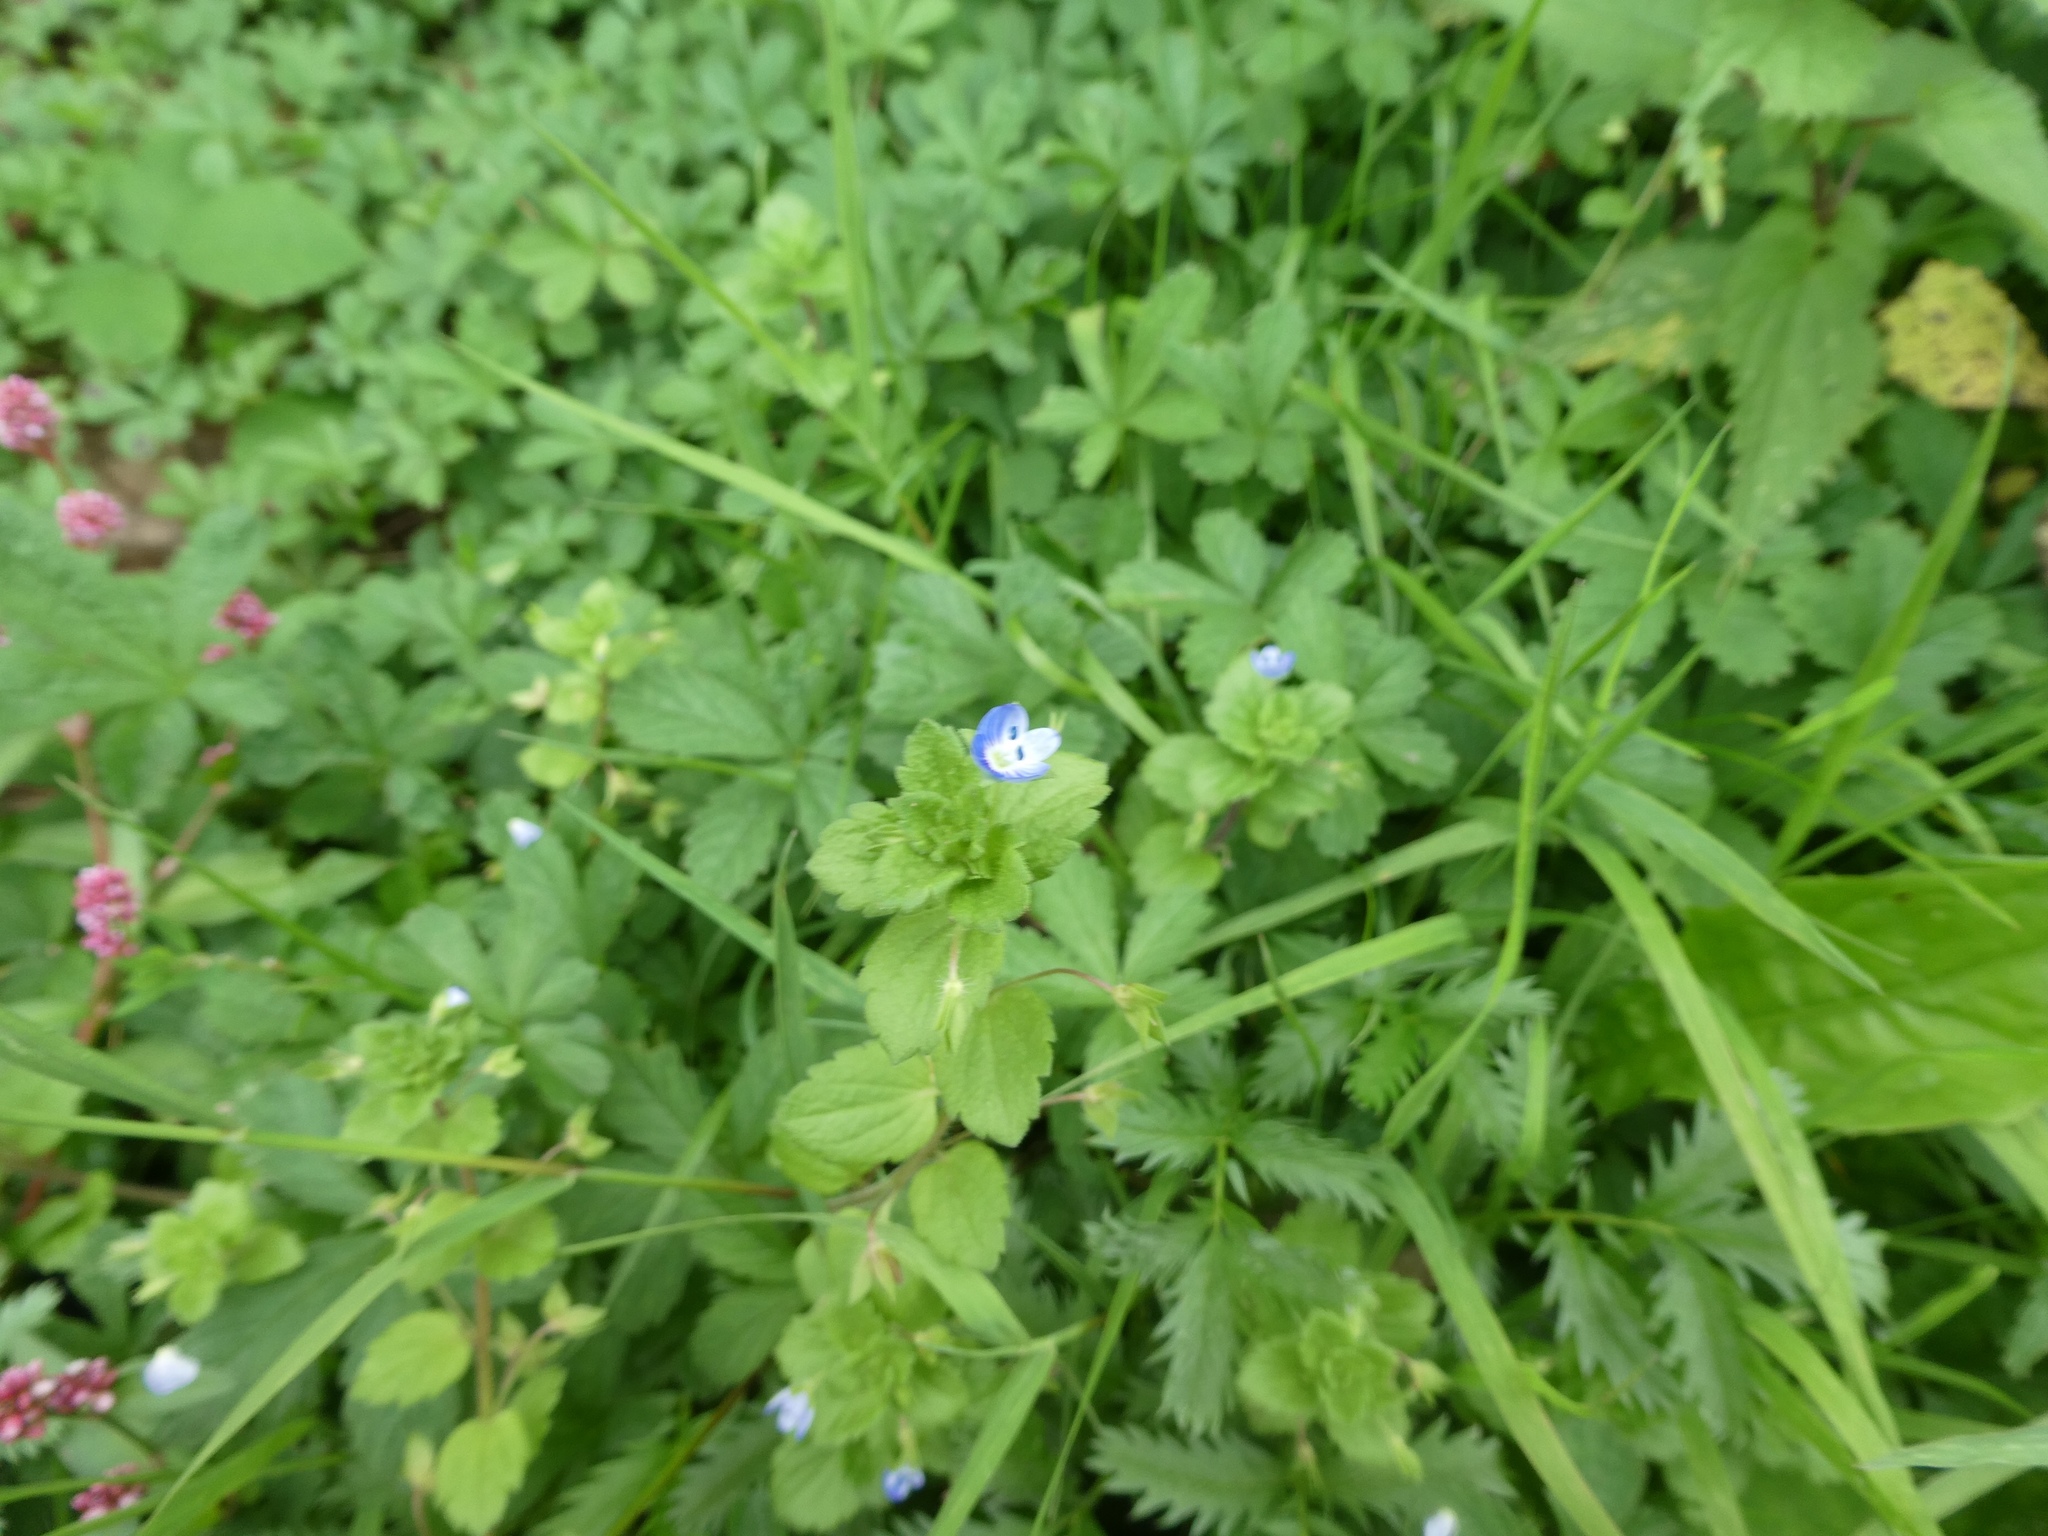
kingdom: Plantae
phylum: Tracheophyta
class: Magnoliopsida
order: Lamiales
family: Plantaginaceae
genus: Veronica
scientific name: Veronica persica
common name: Common field-speedwell
